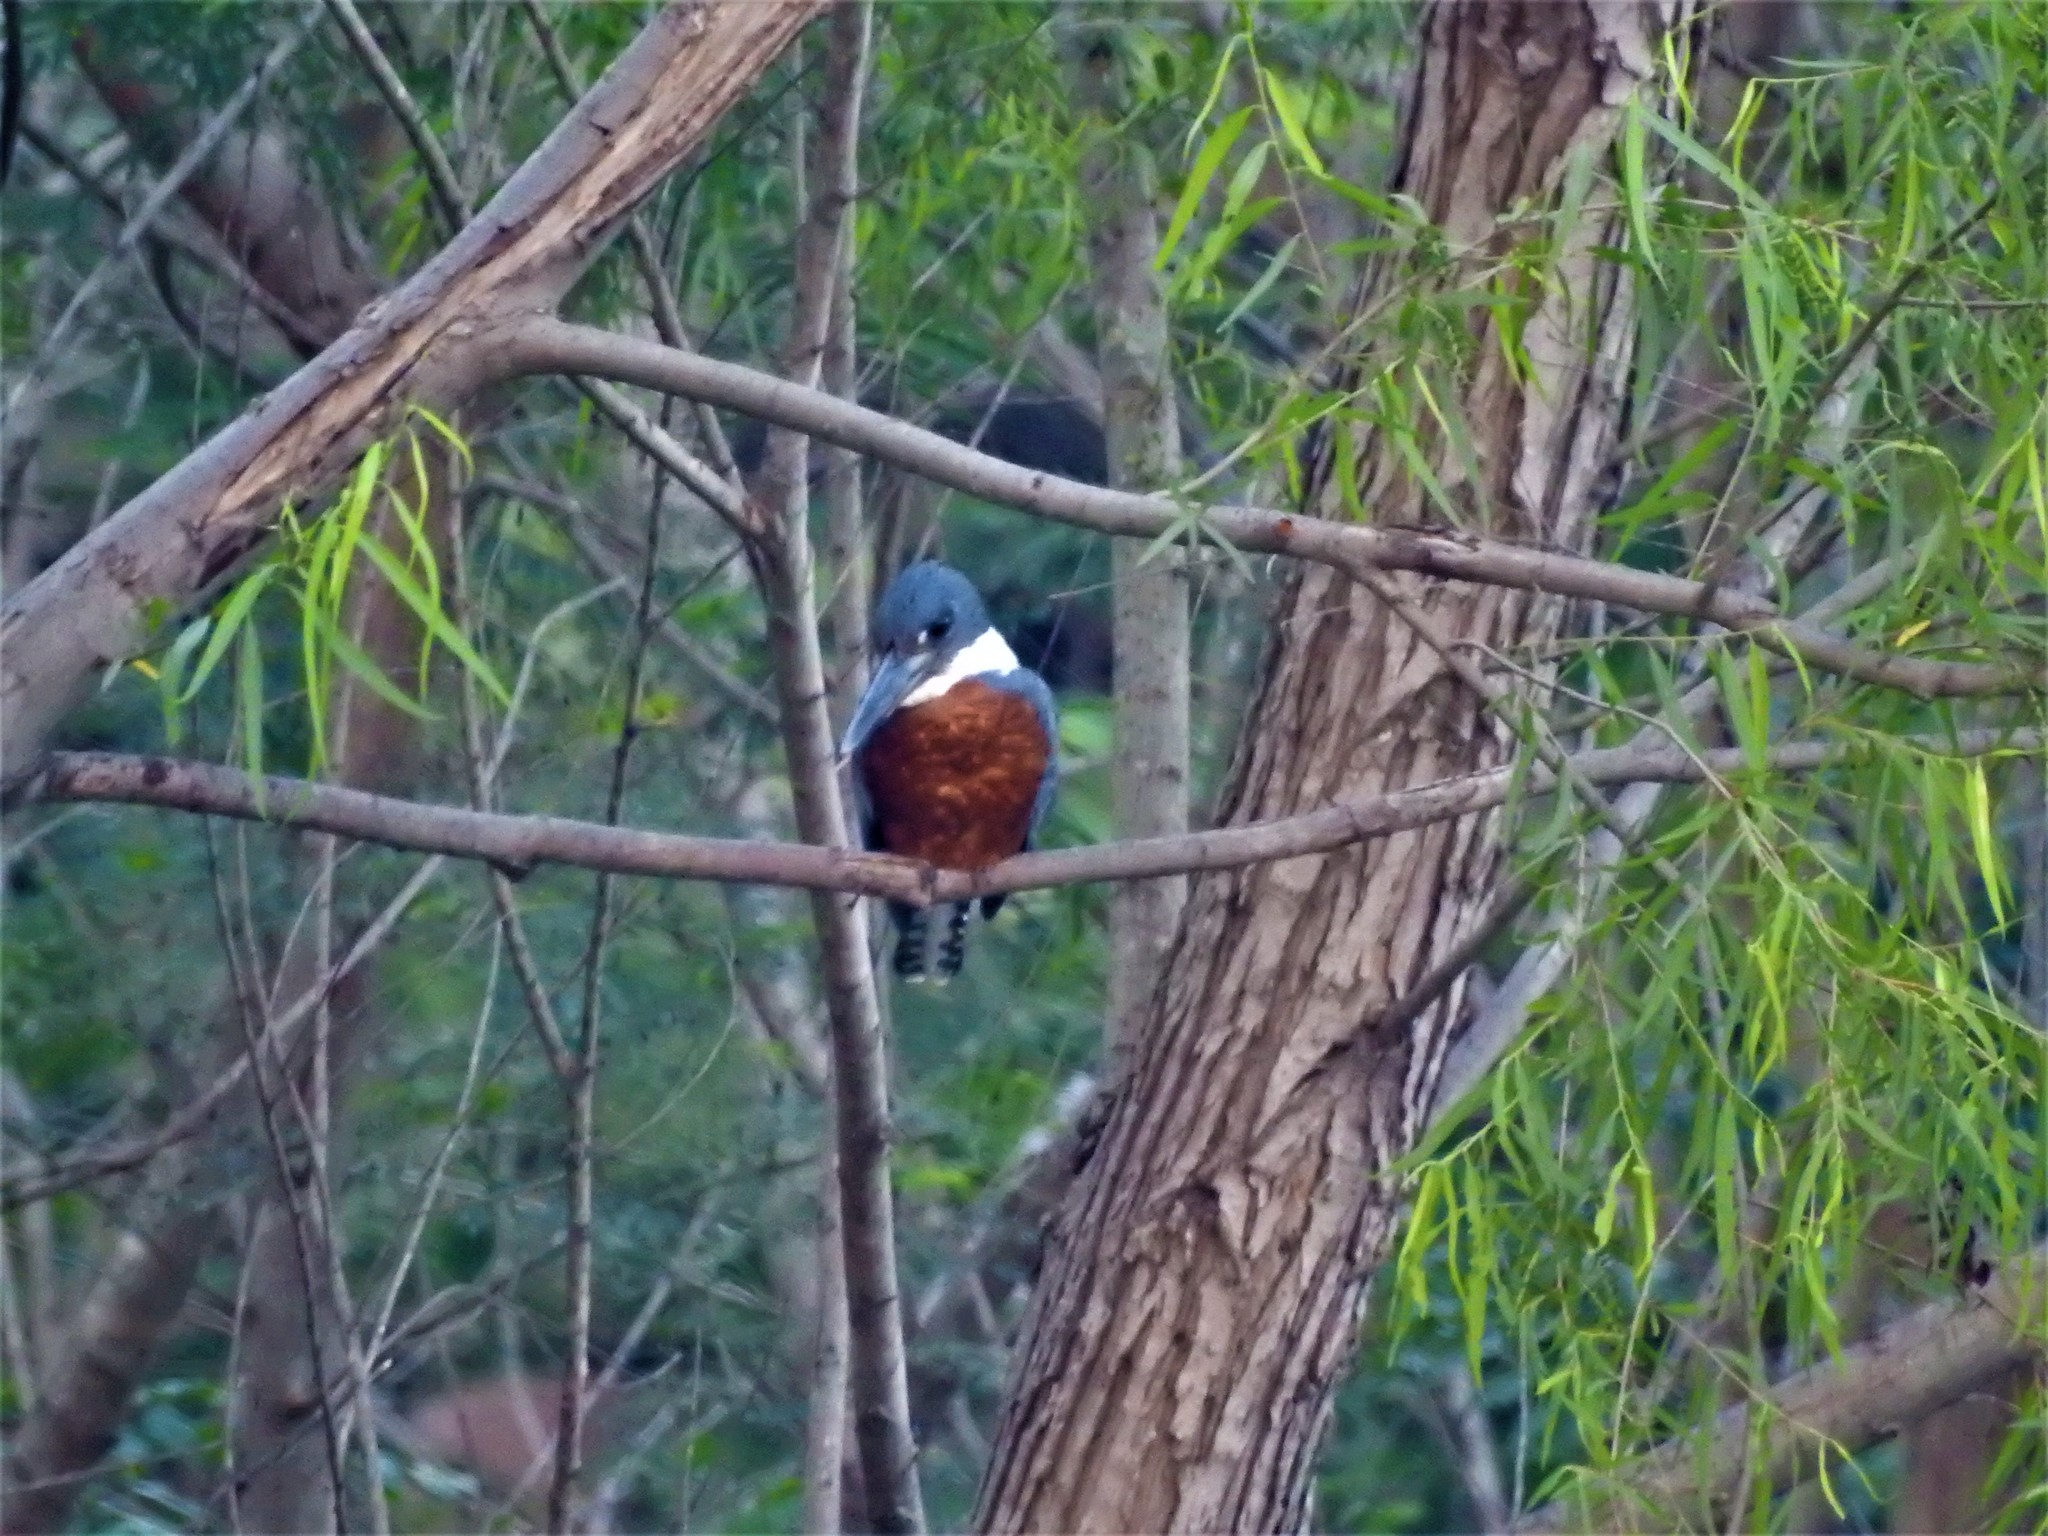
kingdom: Animalia
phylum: Chordata
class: Aves
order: Coraciiformes
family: Alcedinidae
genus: Megaceryle
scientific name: Megaceryle torquata
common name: Ringed kingfisher
